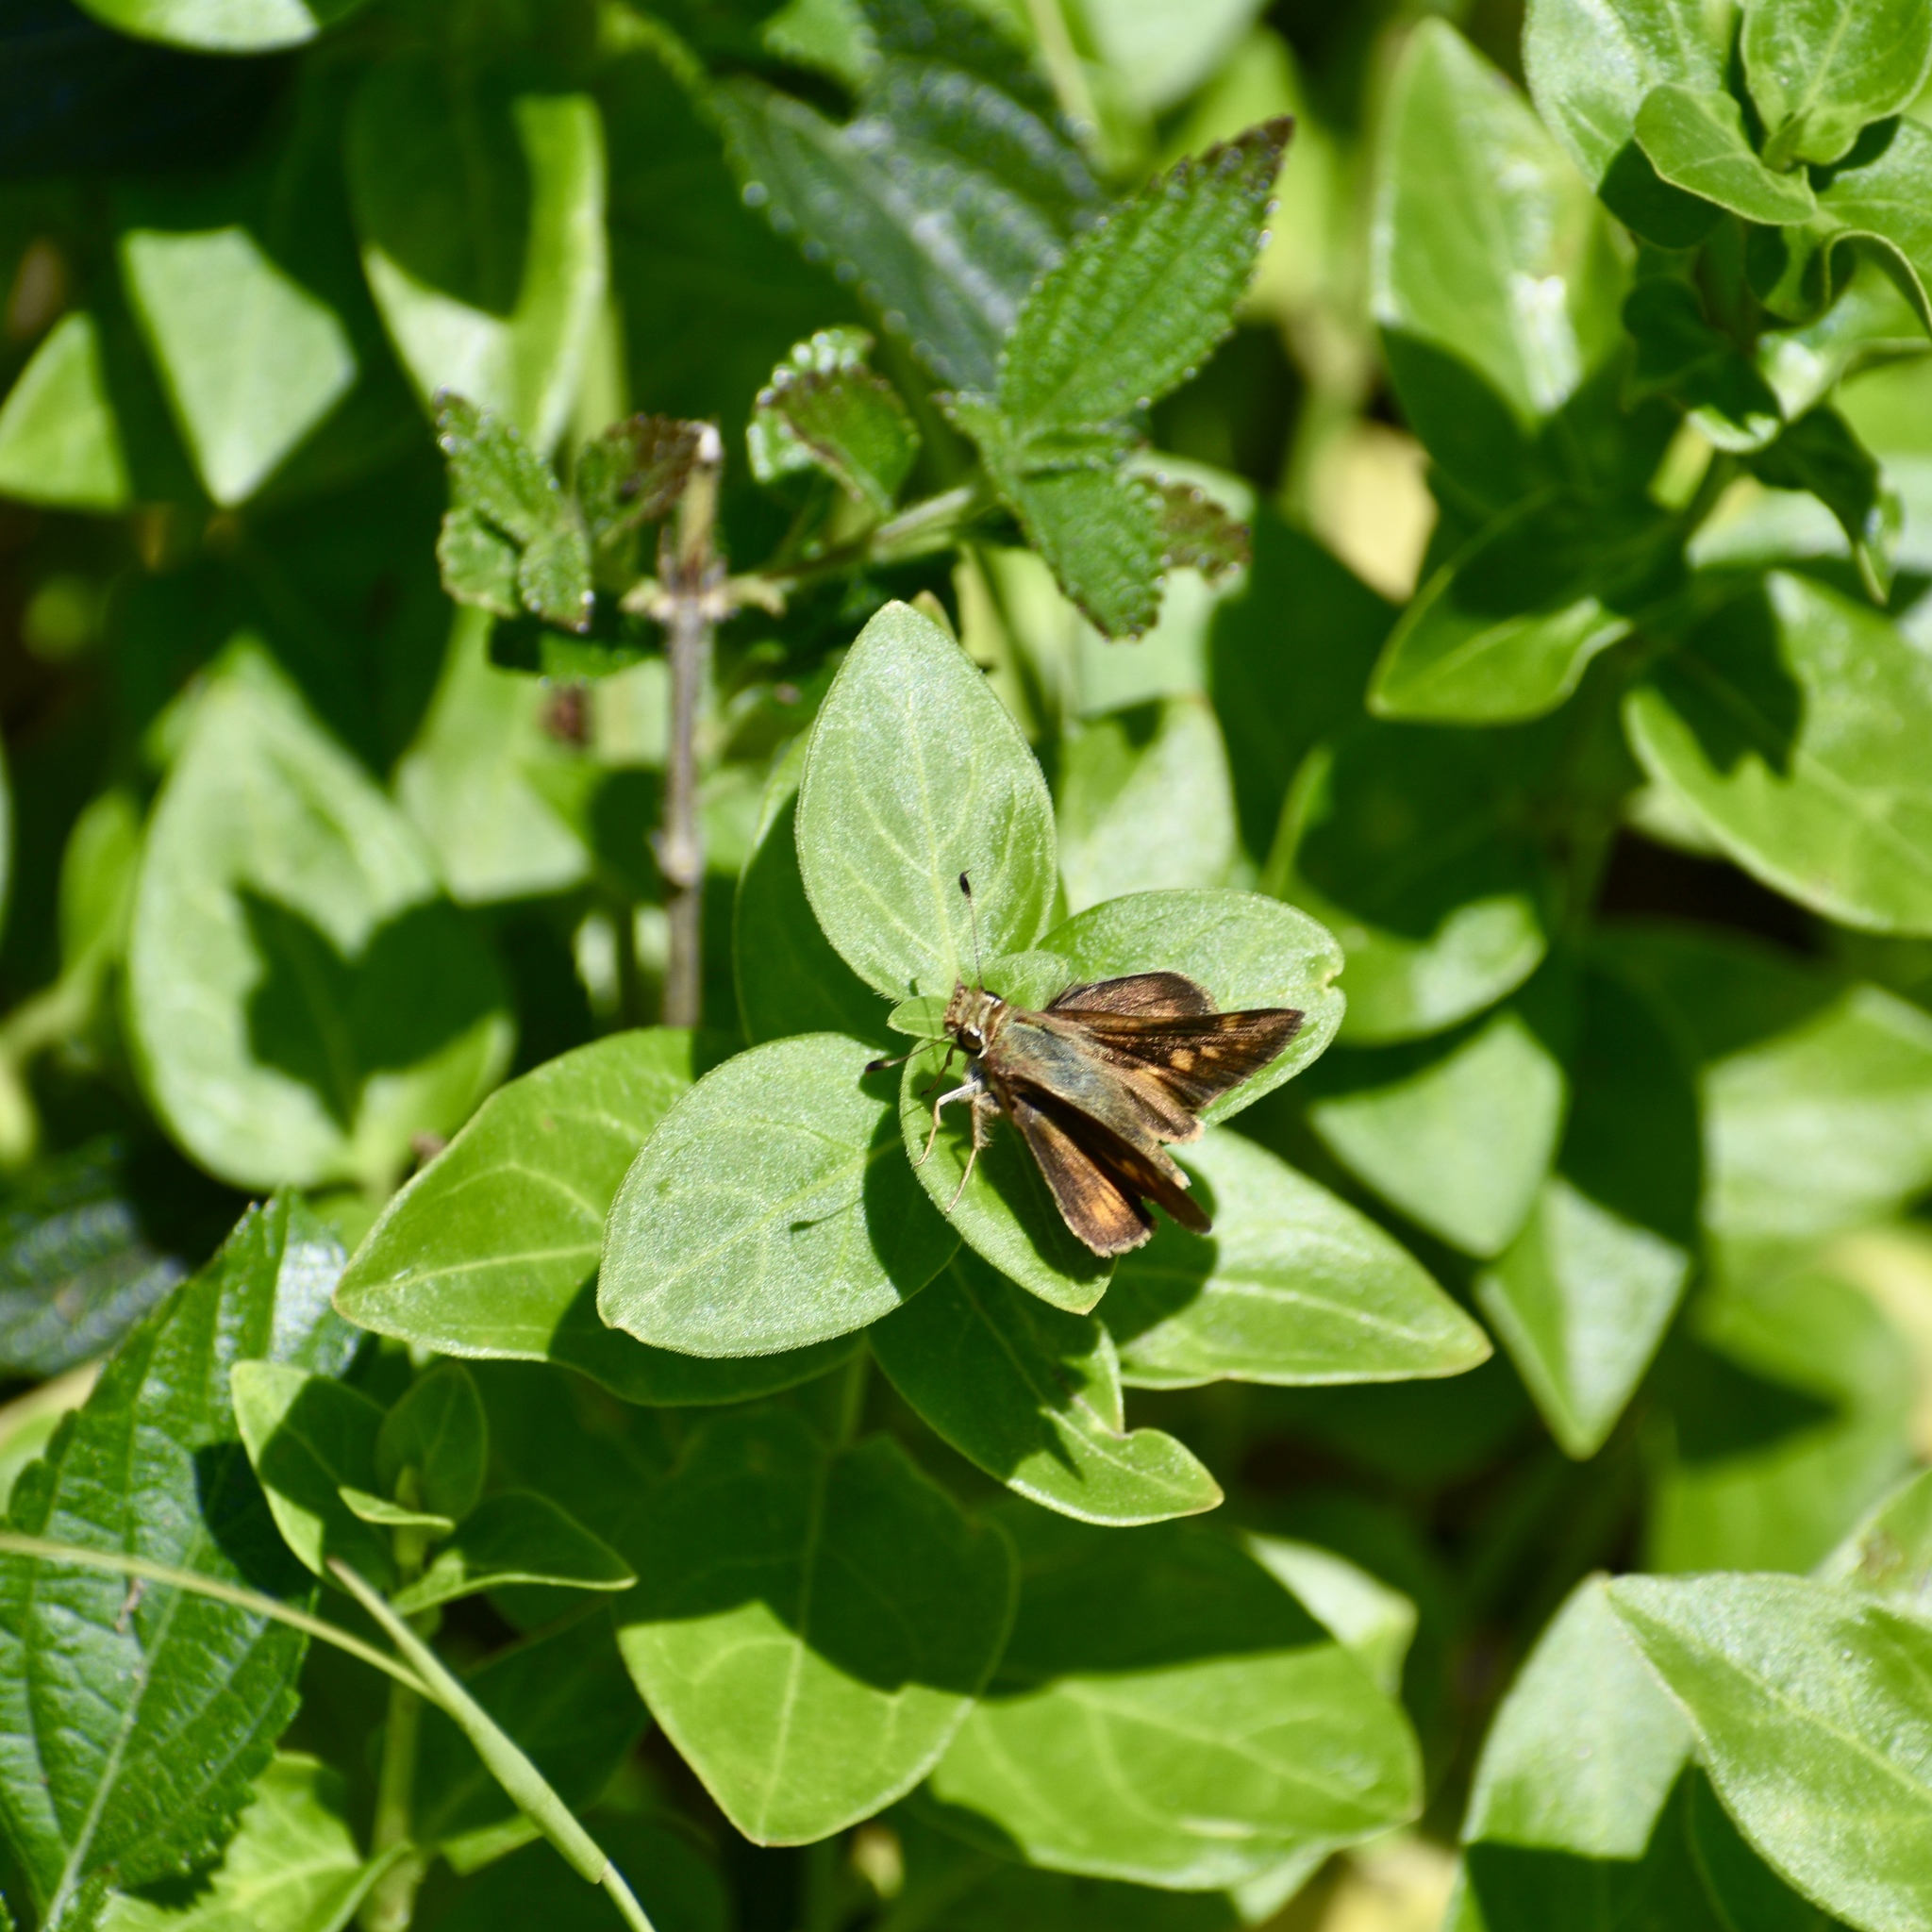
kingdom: Animalia
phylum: Arthropoda
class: Insecta
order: Lepidoptera
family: Hesperiidae
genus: Lon
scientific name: Lon melane
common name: Umber skipper
